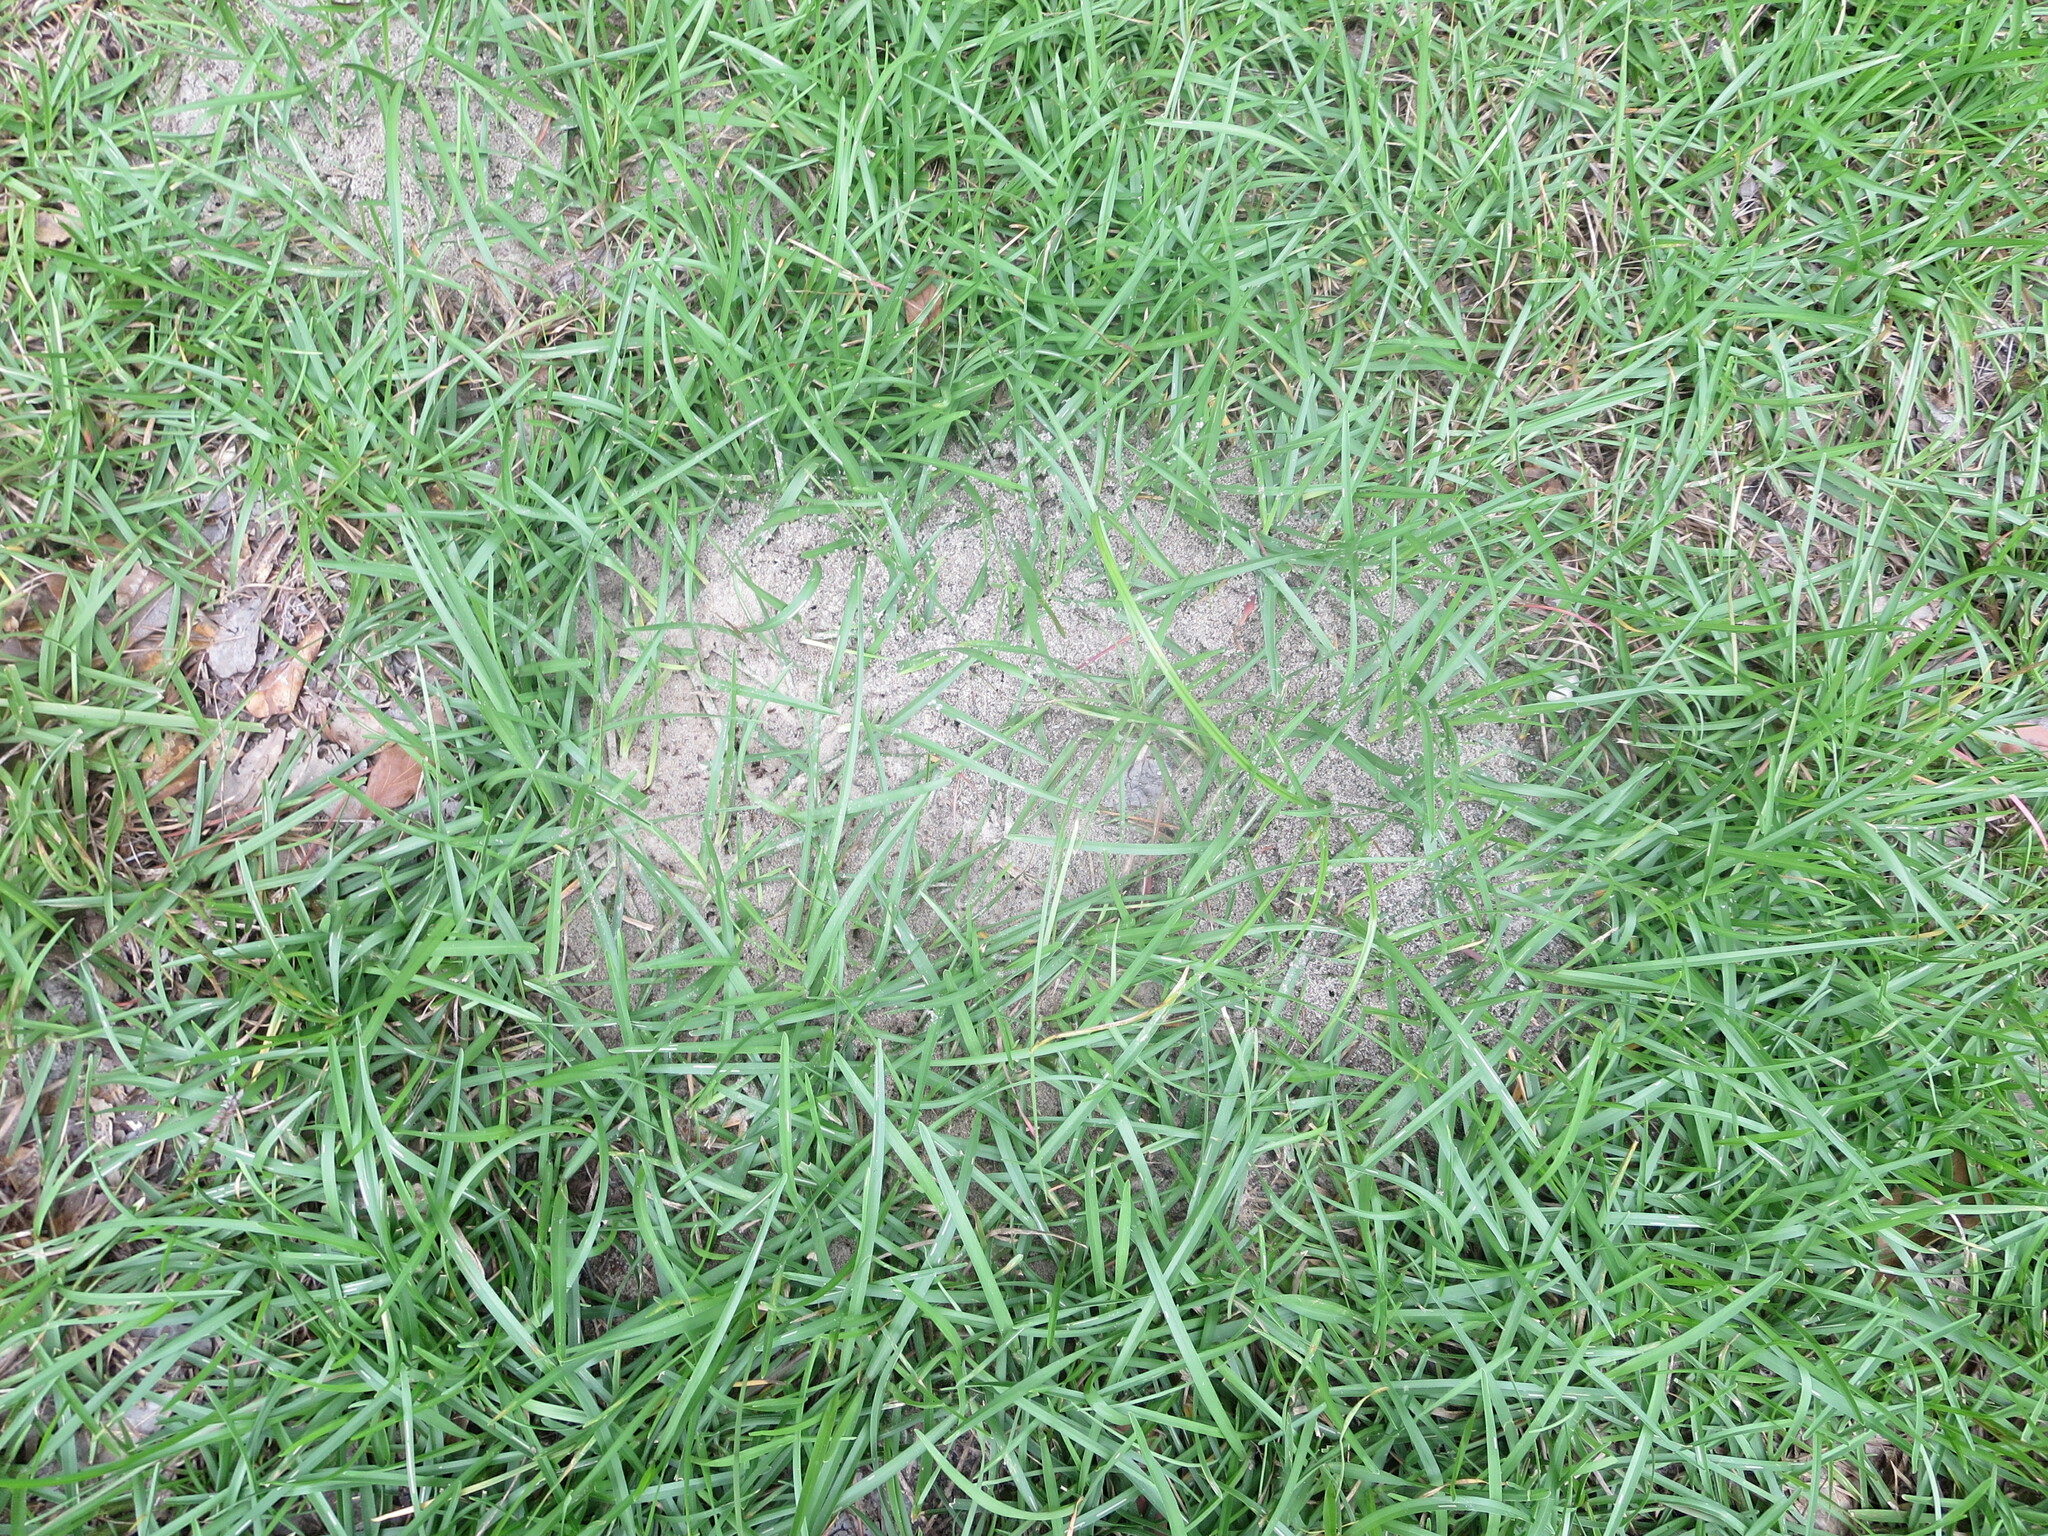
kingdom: Animalia
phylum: Arthropoda
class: Insecta
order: Hymenoptera
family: Formicidae
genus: Solenopsis
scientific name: Solenopsis invicta
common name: Red imported fire ant
